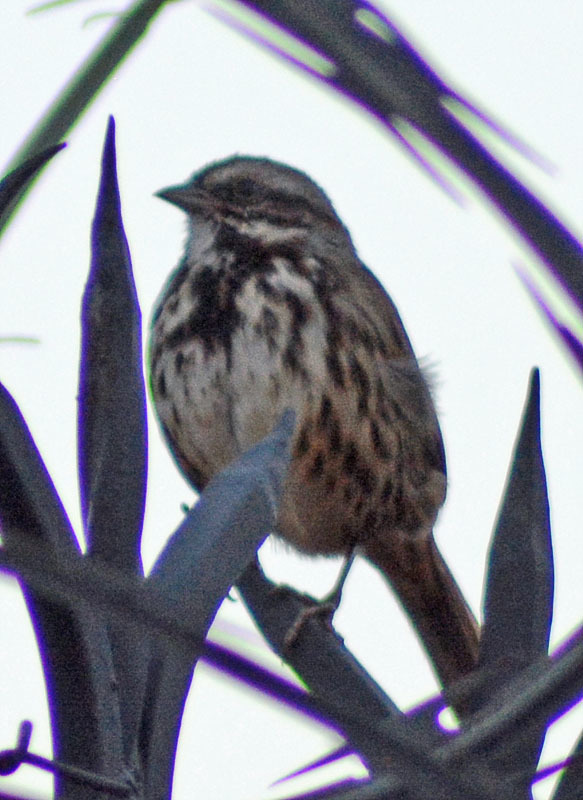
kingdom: Animalia
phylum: Chordata
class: Aves
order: Passeriformes
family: Passerellidae
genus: Melospiza
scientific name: Melospiza melodia
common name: Song sparrow
